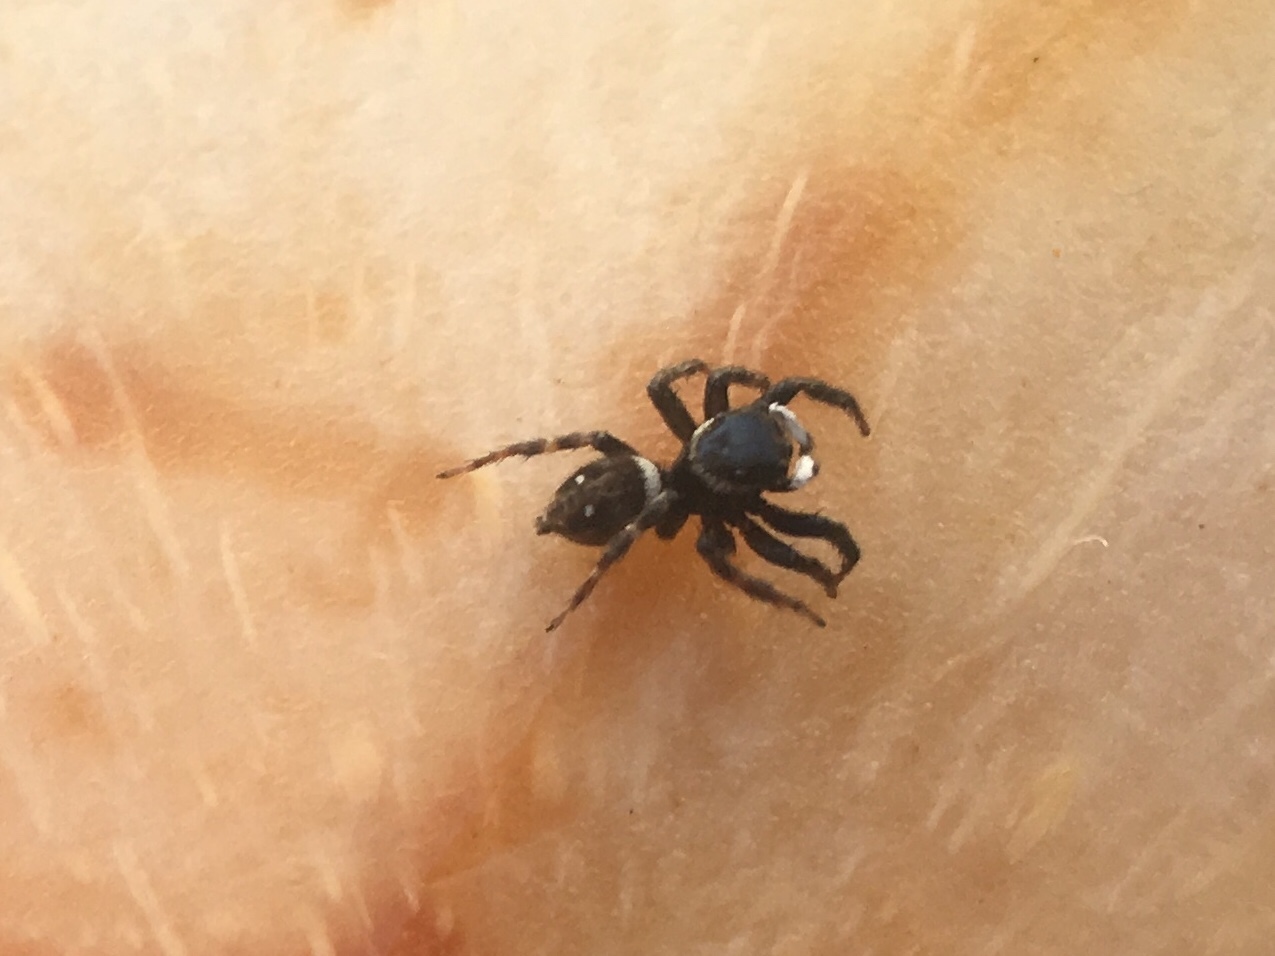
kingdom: Animalia
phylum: Arthropoda
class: Arachnida
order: Araneae
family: Salticidae
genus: Hasarius
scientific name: Hasarius adansoni
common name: Jumping spider
